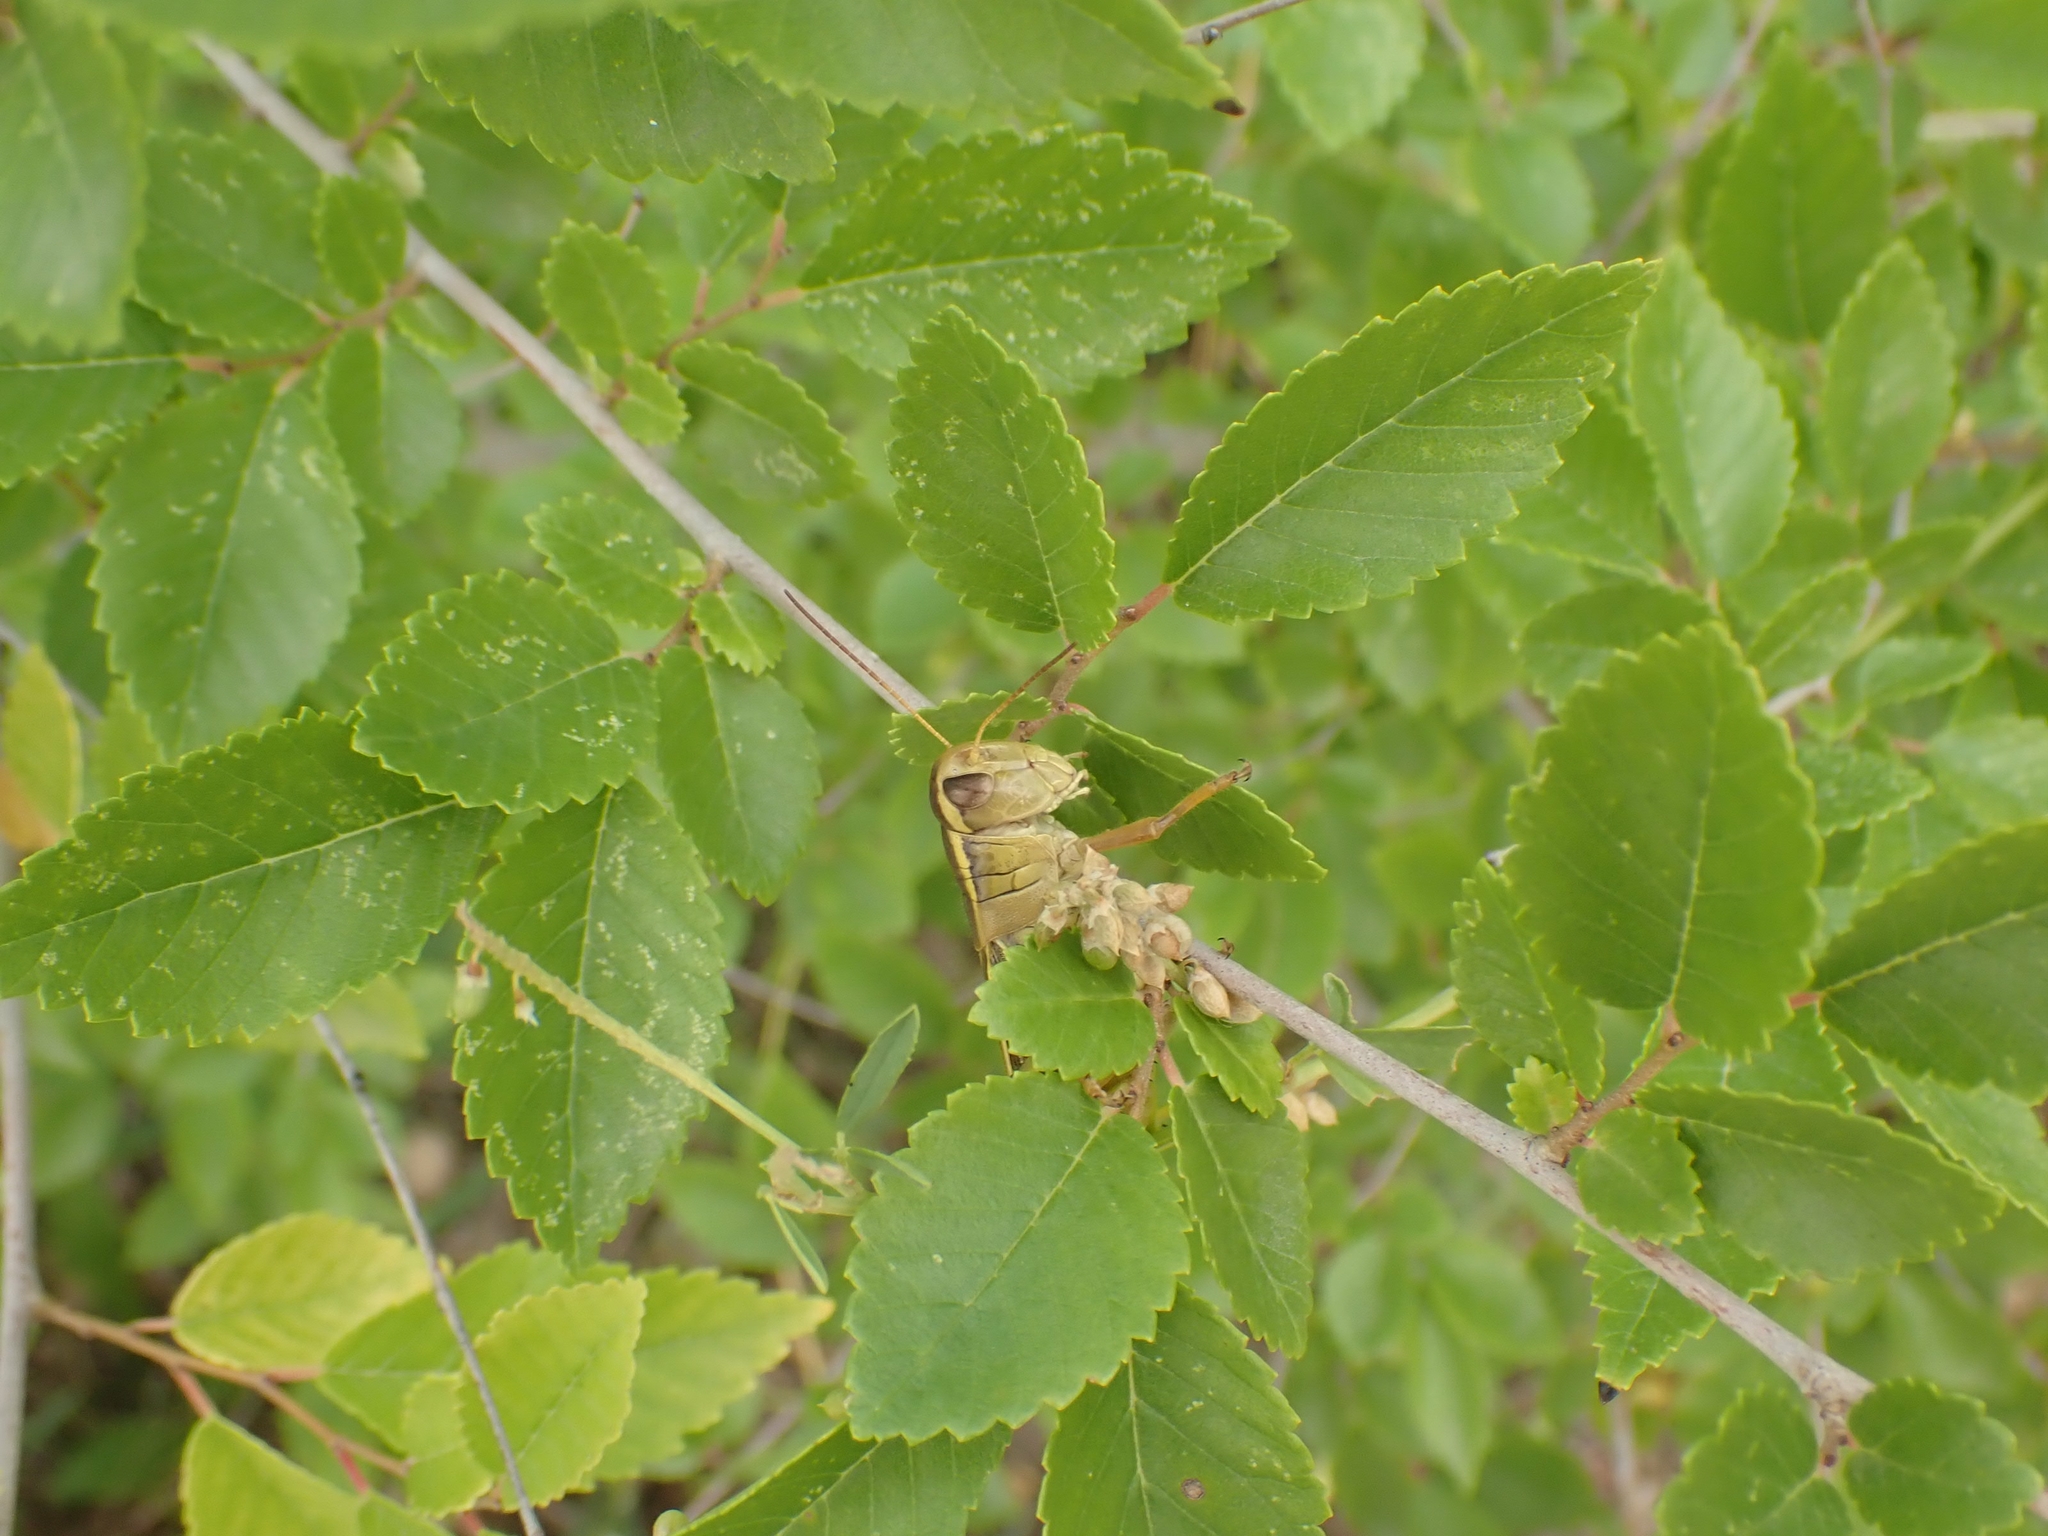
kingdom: Animalia
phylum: Arthropoda
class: Insecta
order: Orthoptera
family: Acrididae
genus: Melanoplus
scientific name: Melanoplus bivittatus
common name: Two-striped grasshopper
